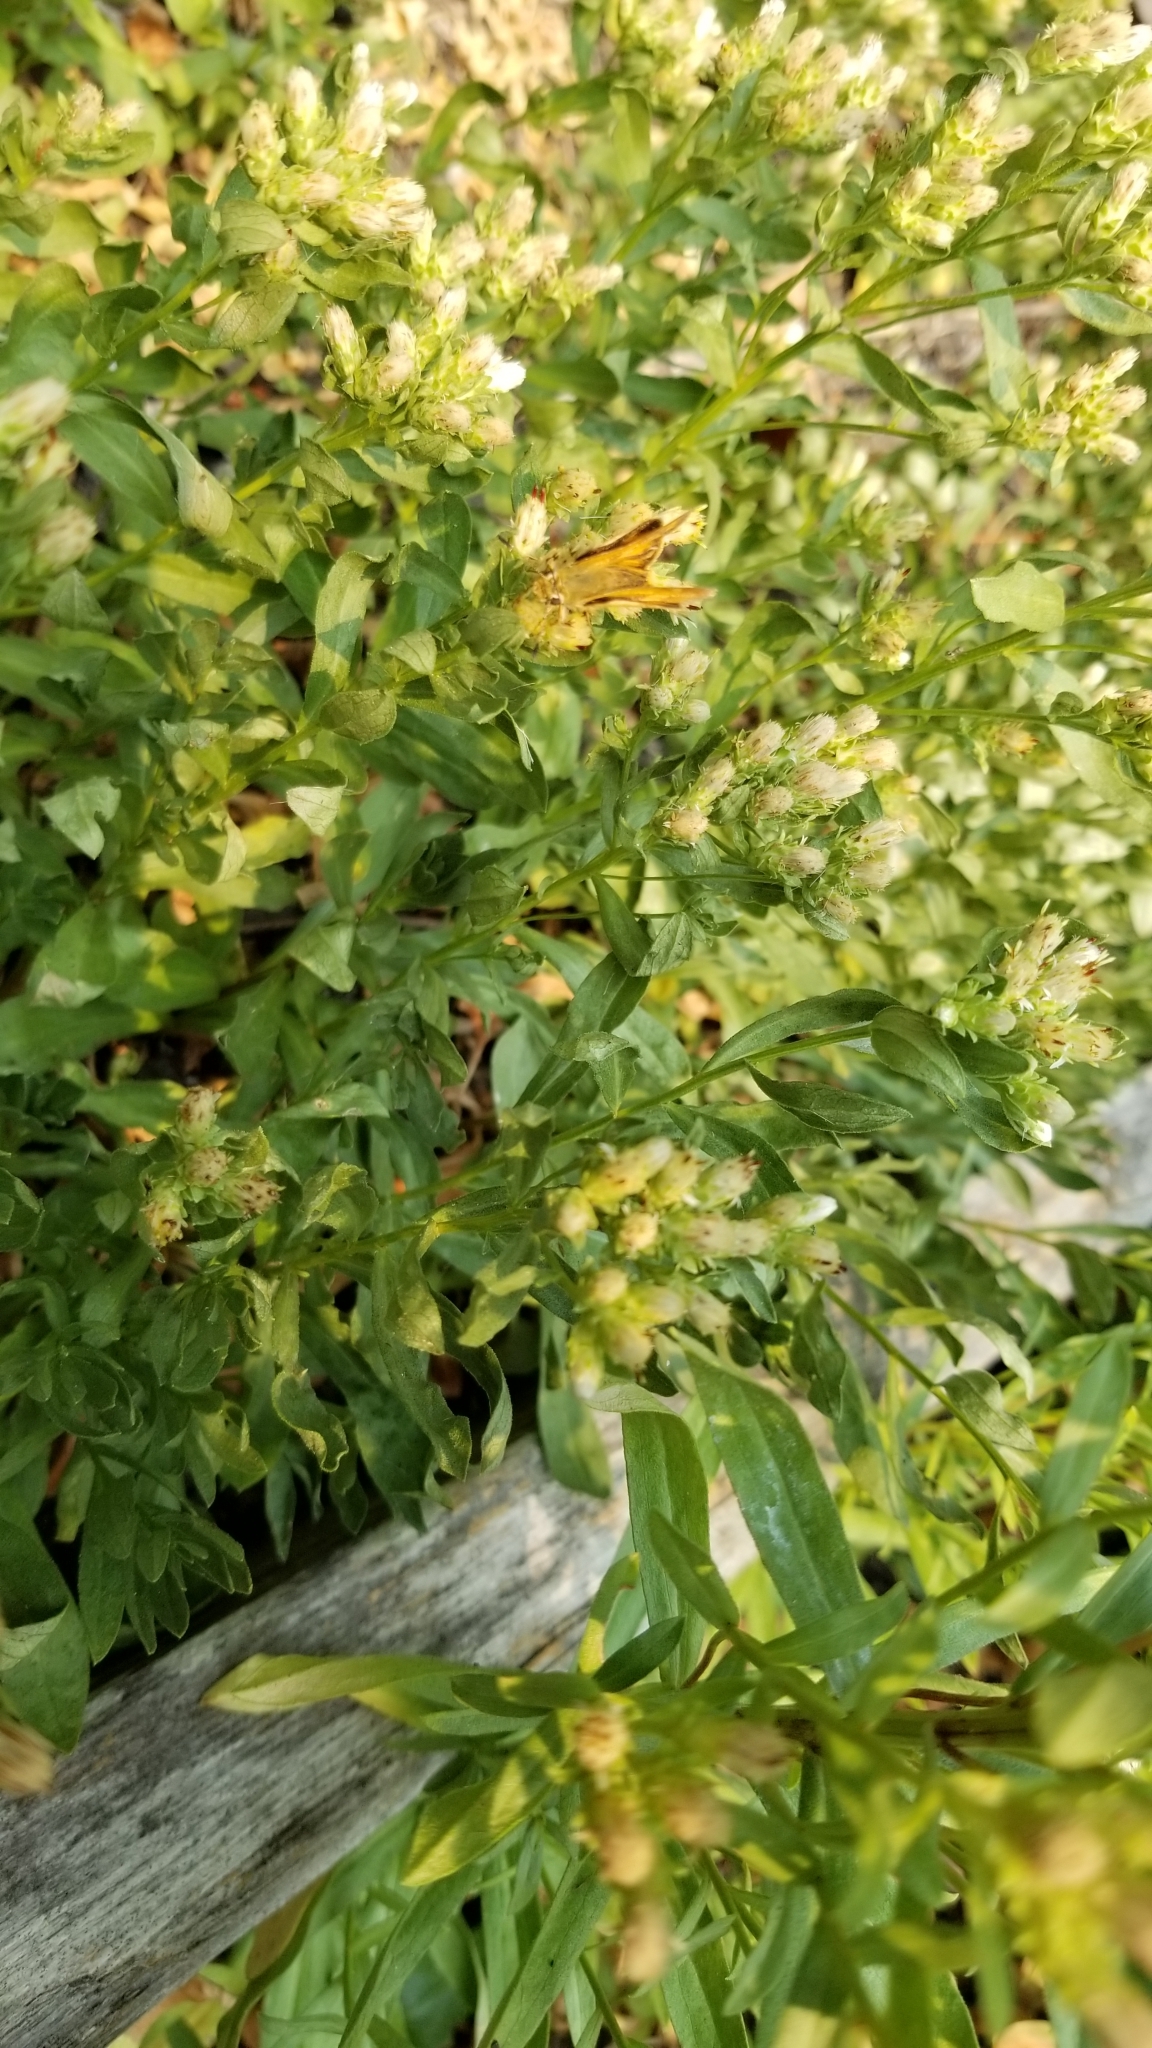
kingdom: Animalia
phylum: Arthropoda
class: Insecta
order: Lepidoptera
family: Hesperiidae
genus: Ochlodes
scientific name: Ochlodes sylvanoides
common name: Woodland skipper
